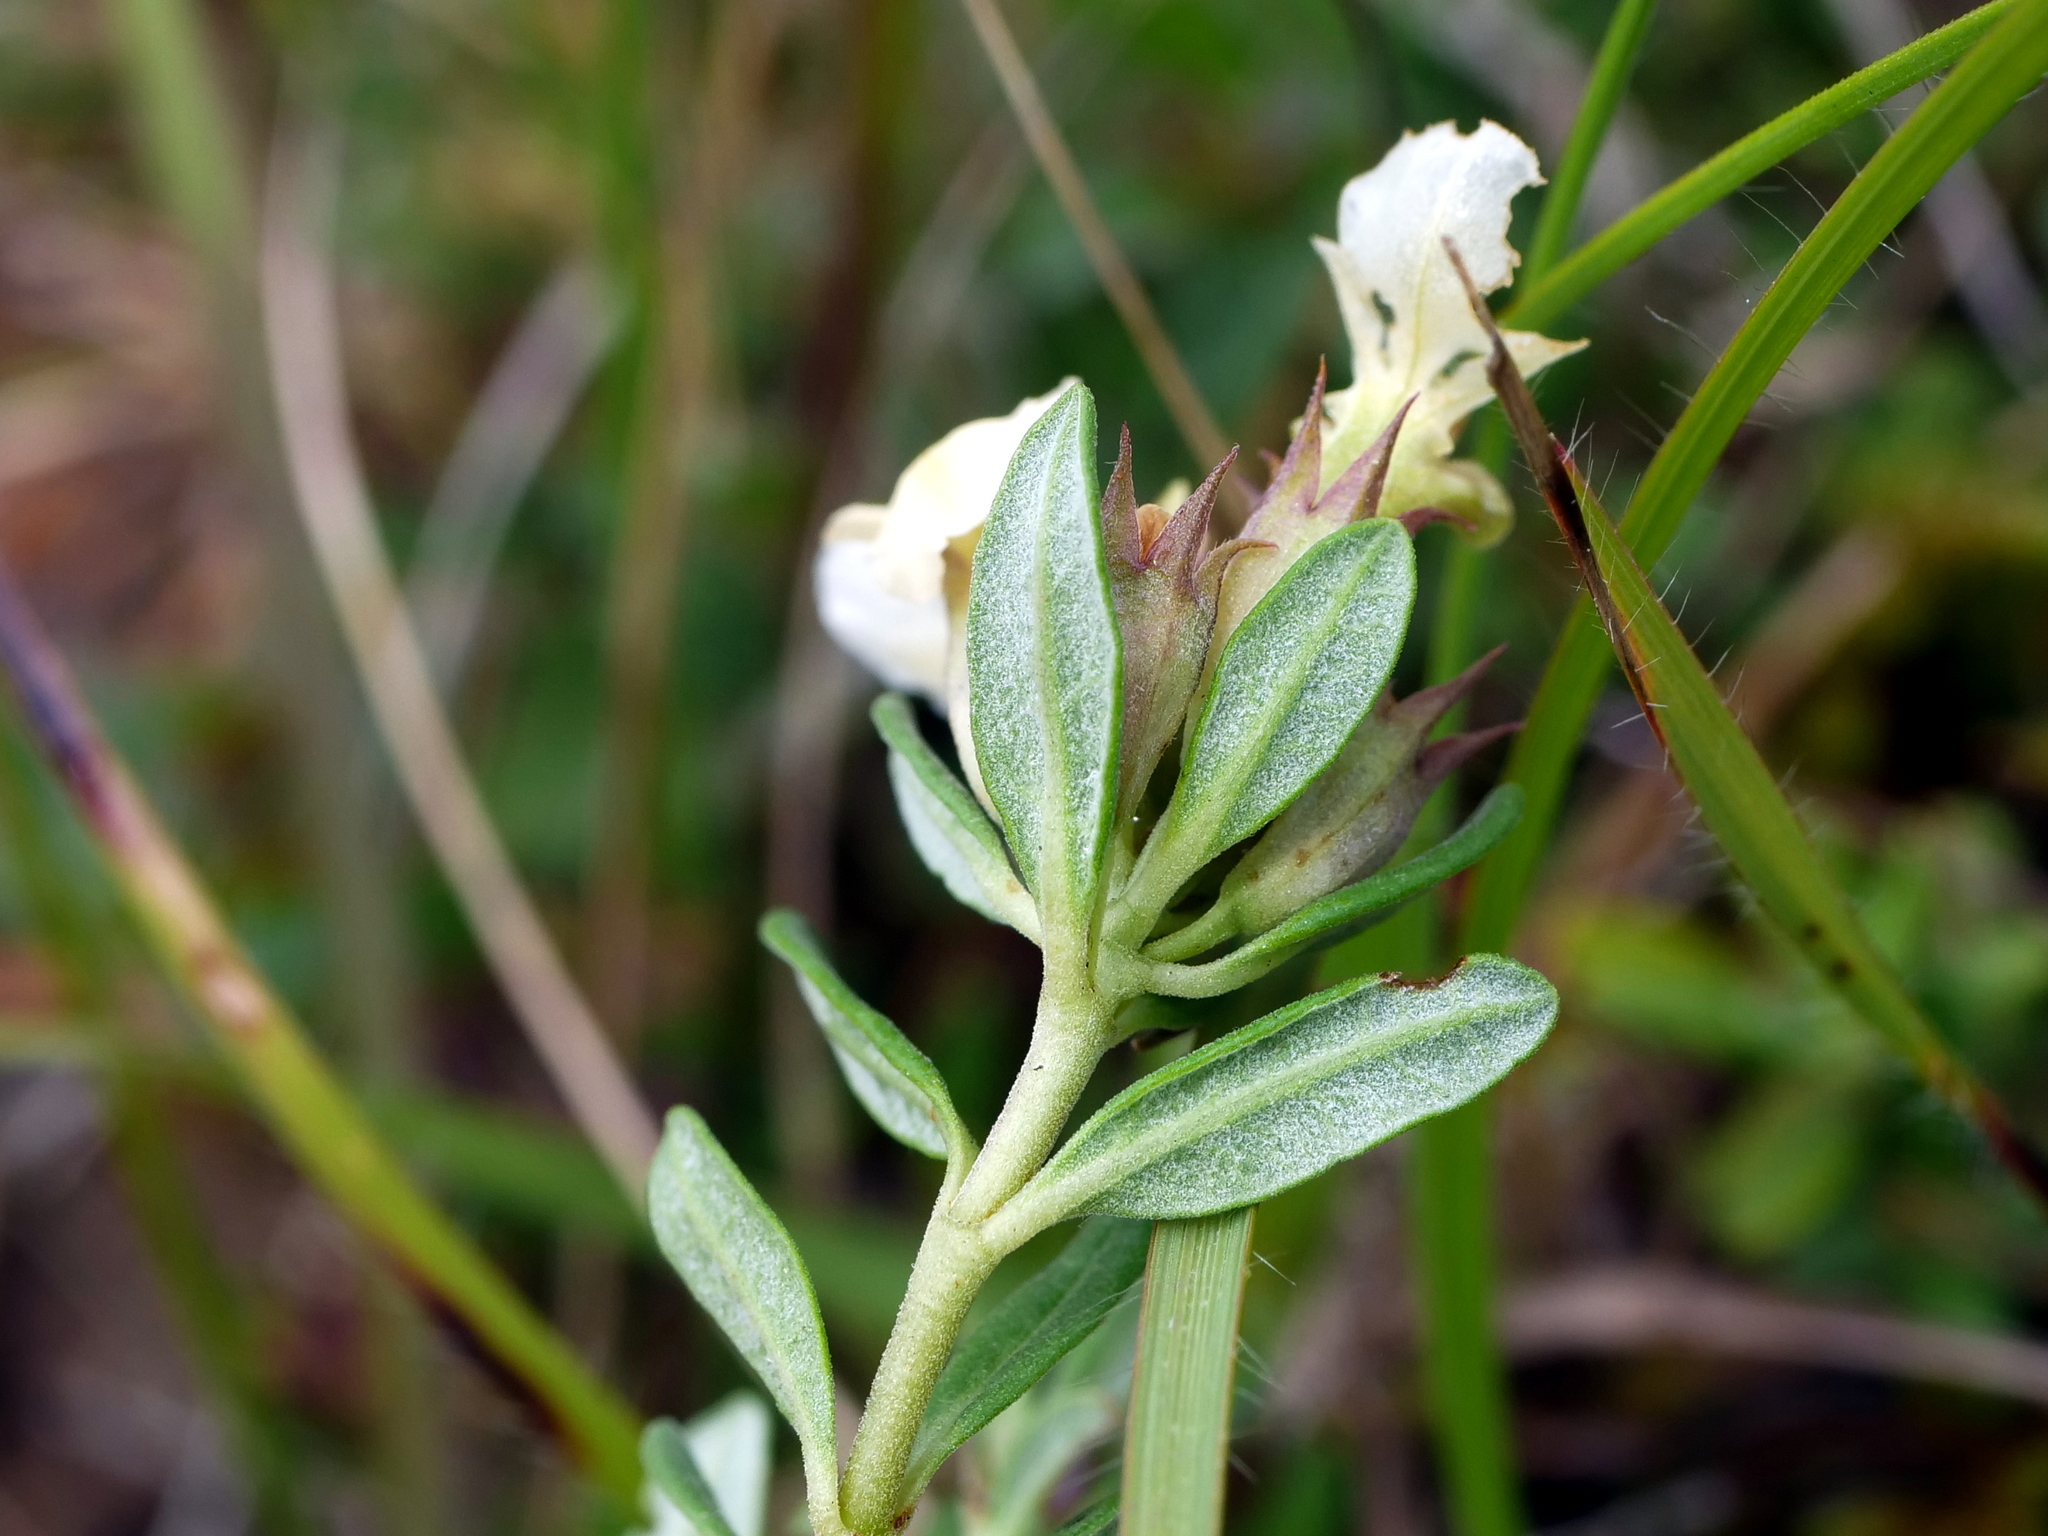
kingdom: Plantae
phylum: Tracheophyta
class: Magnoliopsida
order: Lamiales
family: Lamiaceae
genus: Teucrium
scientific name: Teucrium montanum
